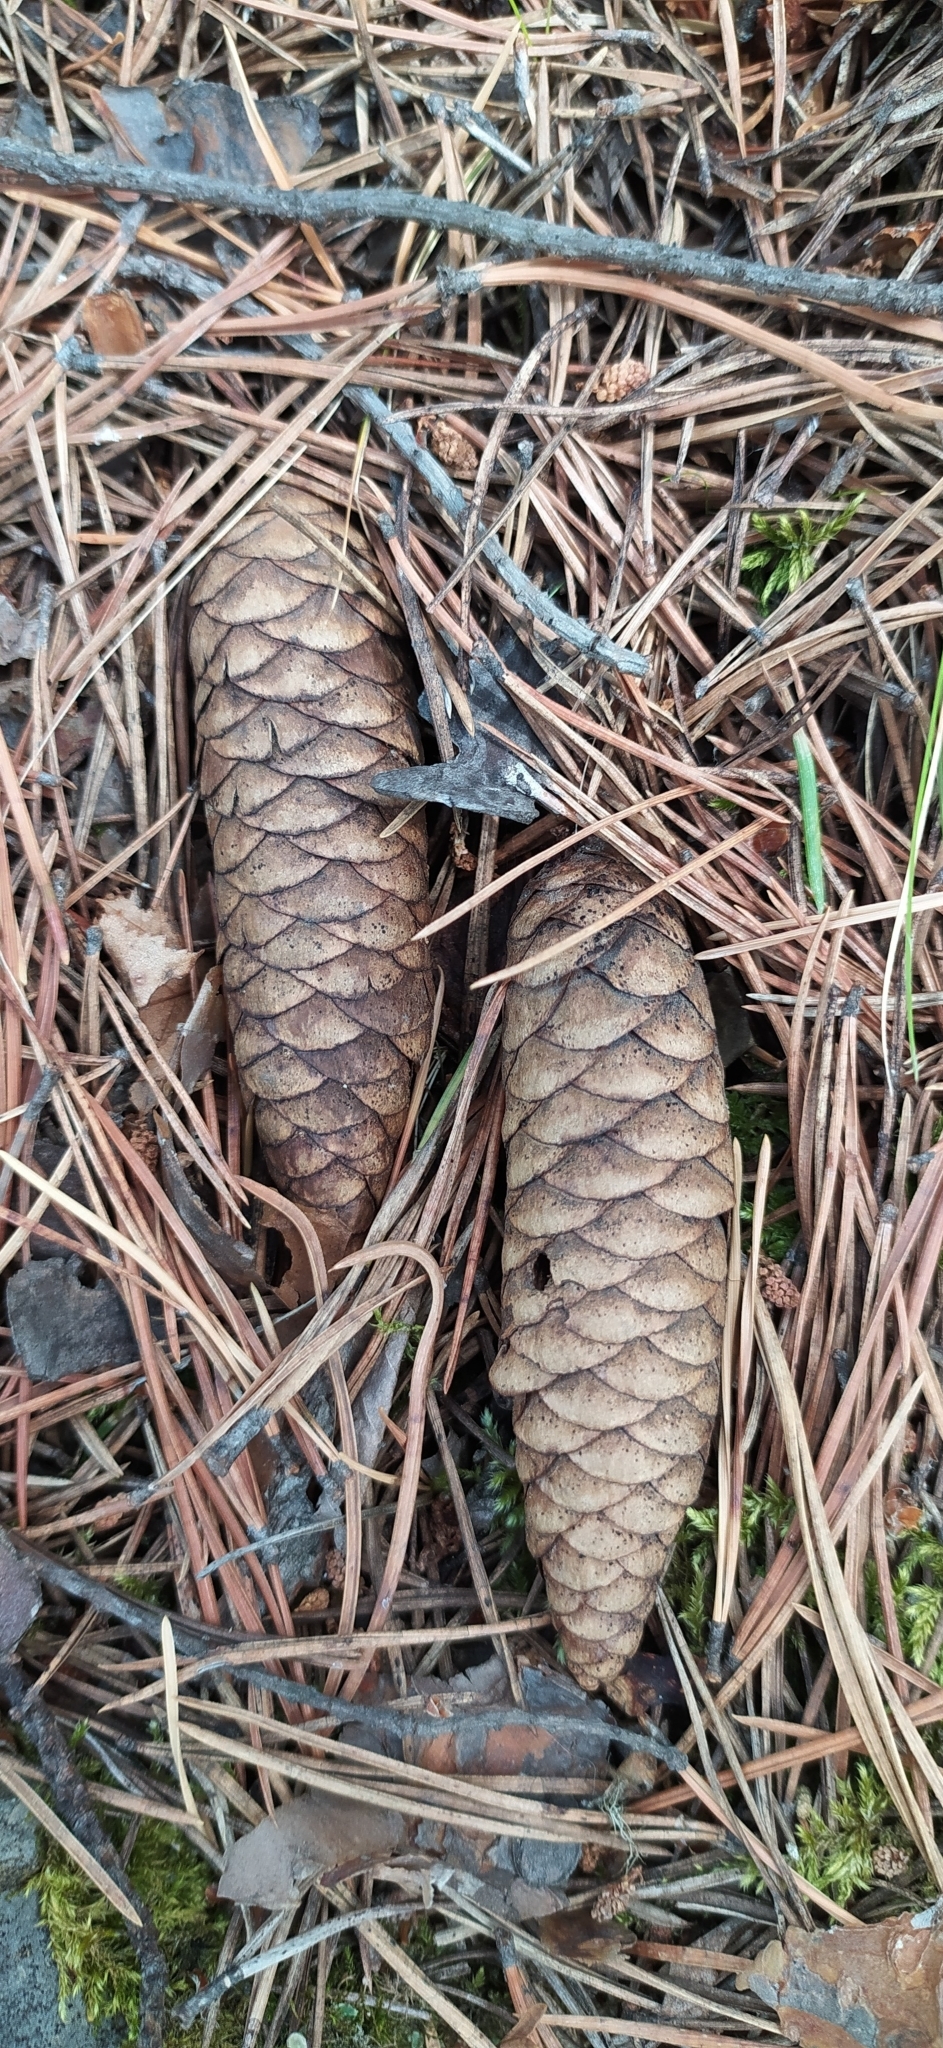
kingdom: Plantae
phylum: Tracheophyta
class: Pinopsida
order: Pinales
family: Pinaceae
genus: Picea
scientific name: Picea obovata
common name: Siberian spruce
